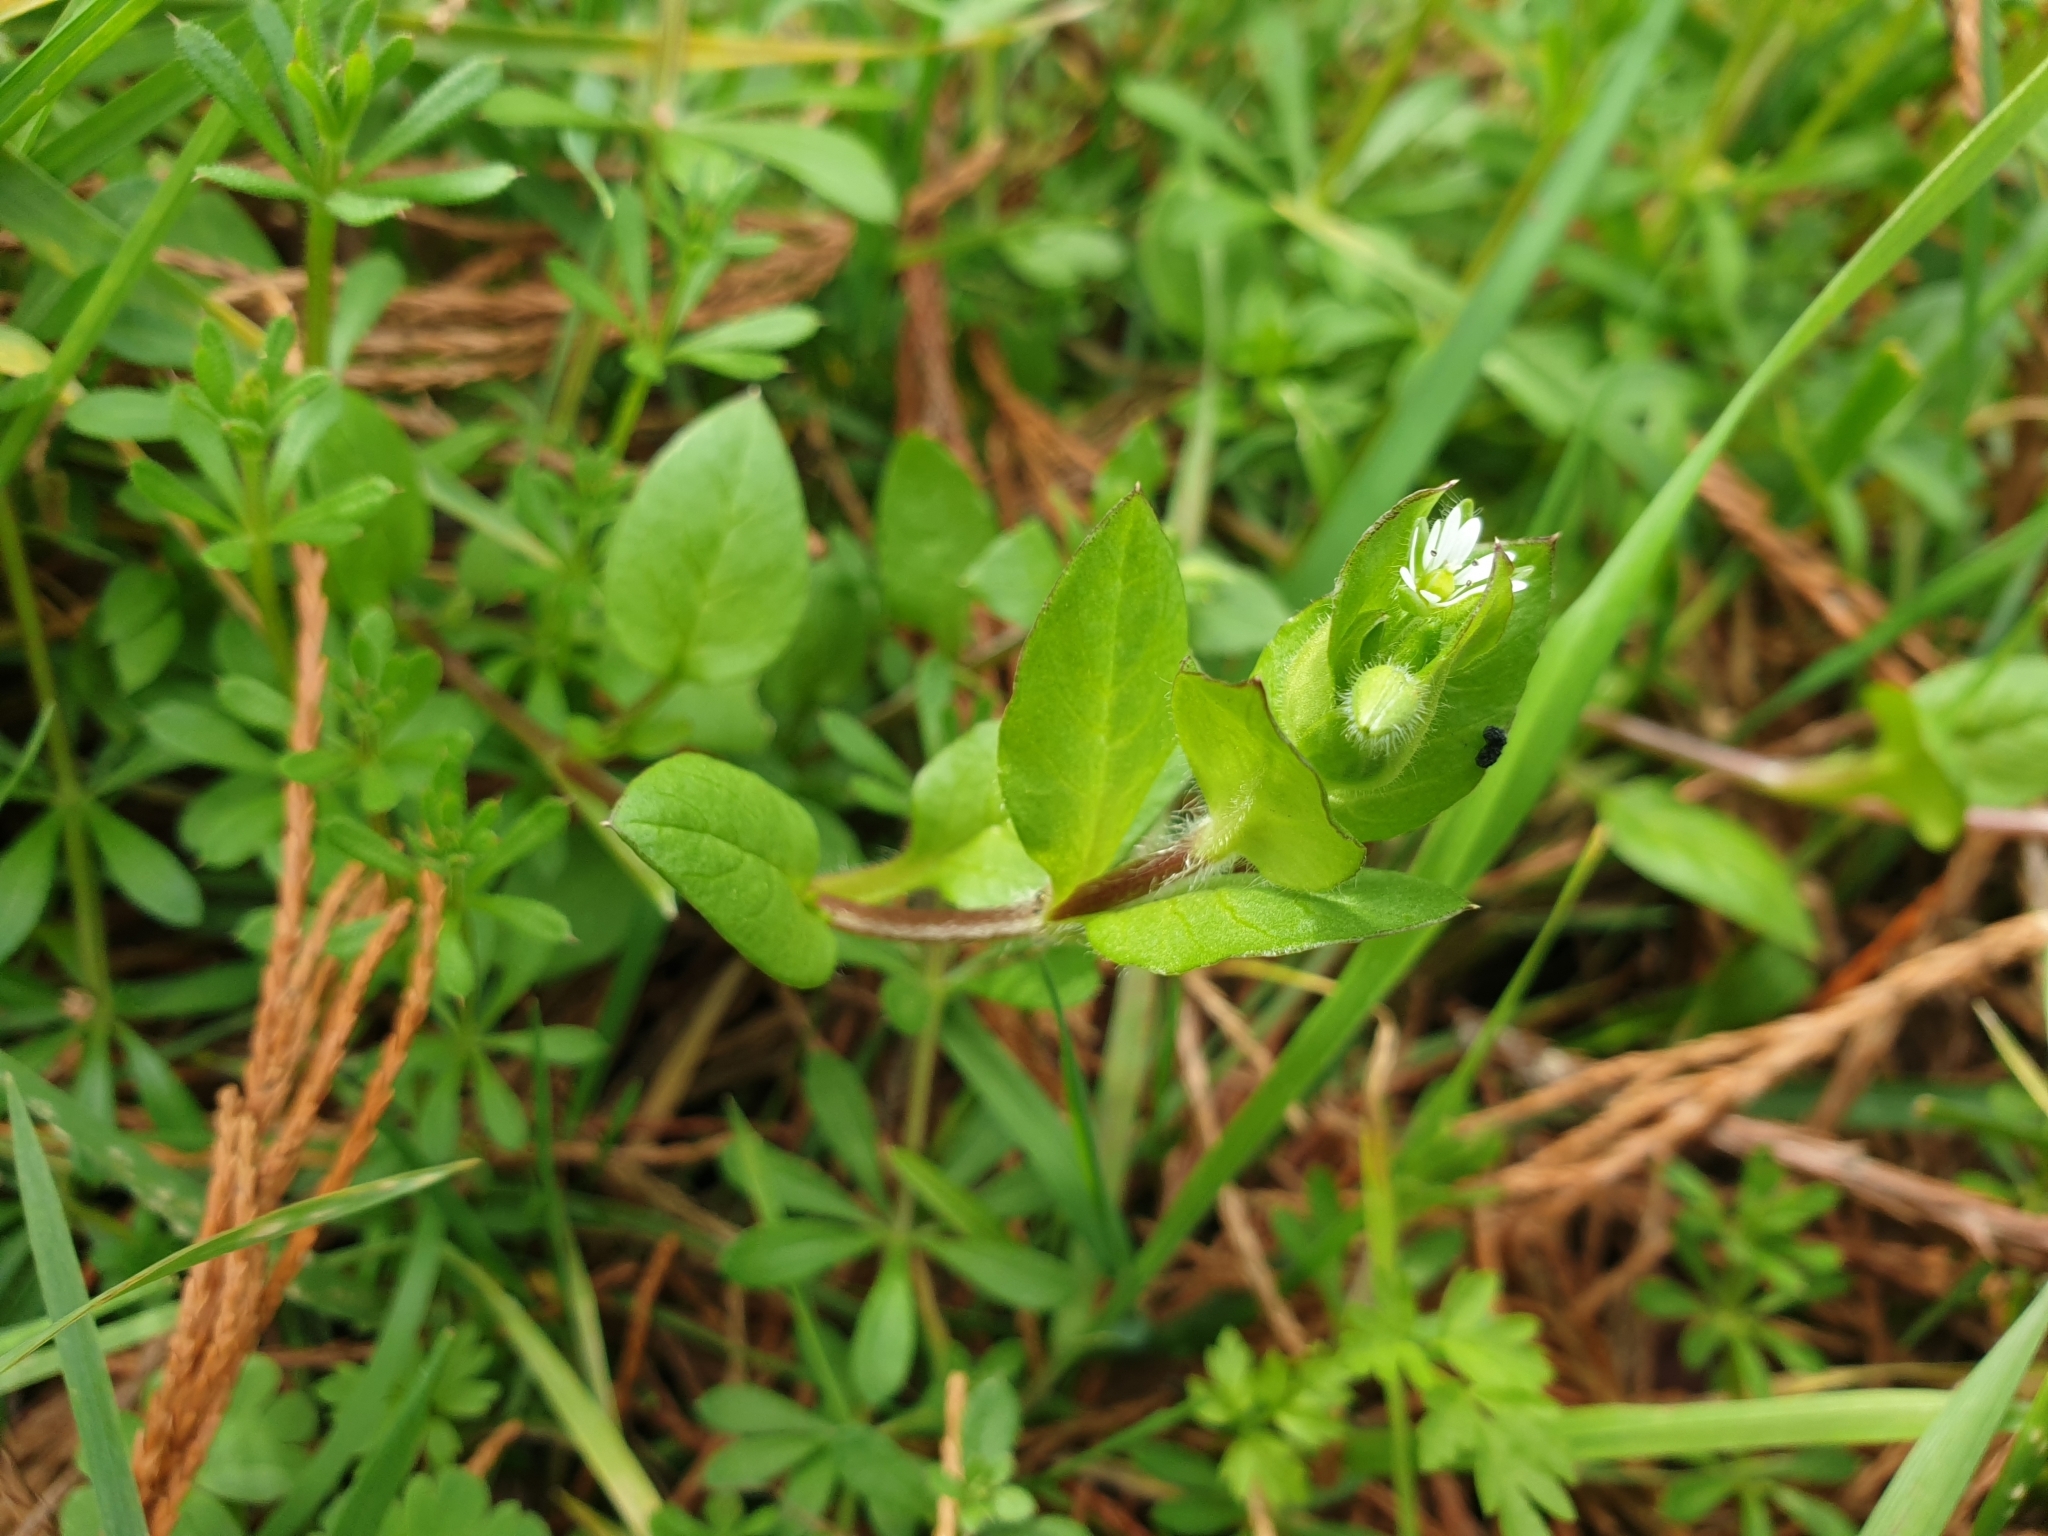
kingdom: Plantae
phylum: Tracheophyta
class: Magnoliopsida
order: Caryophyllales
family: Caryophyllaceae
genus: Stellaria
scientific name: Stellaria media
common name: Common chickweed
